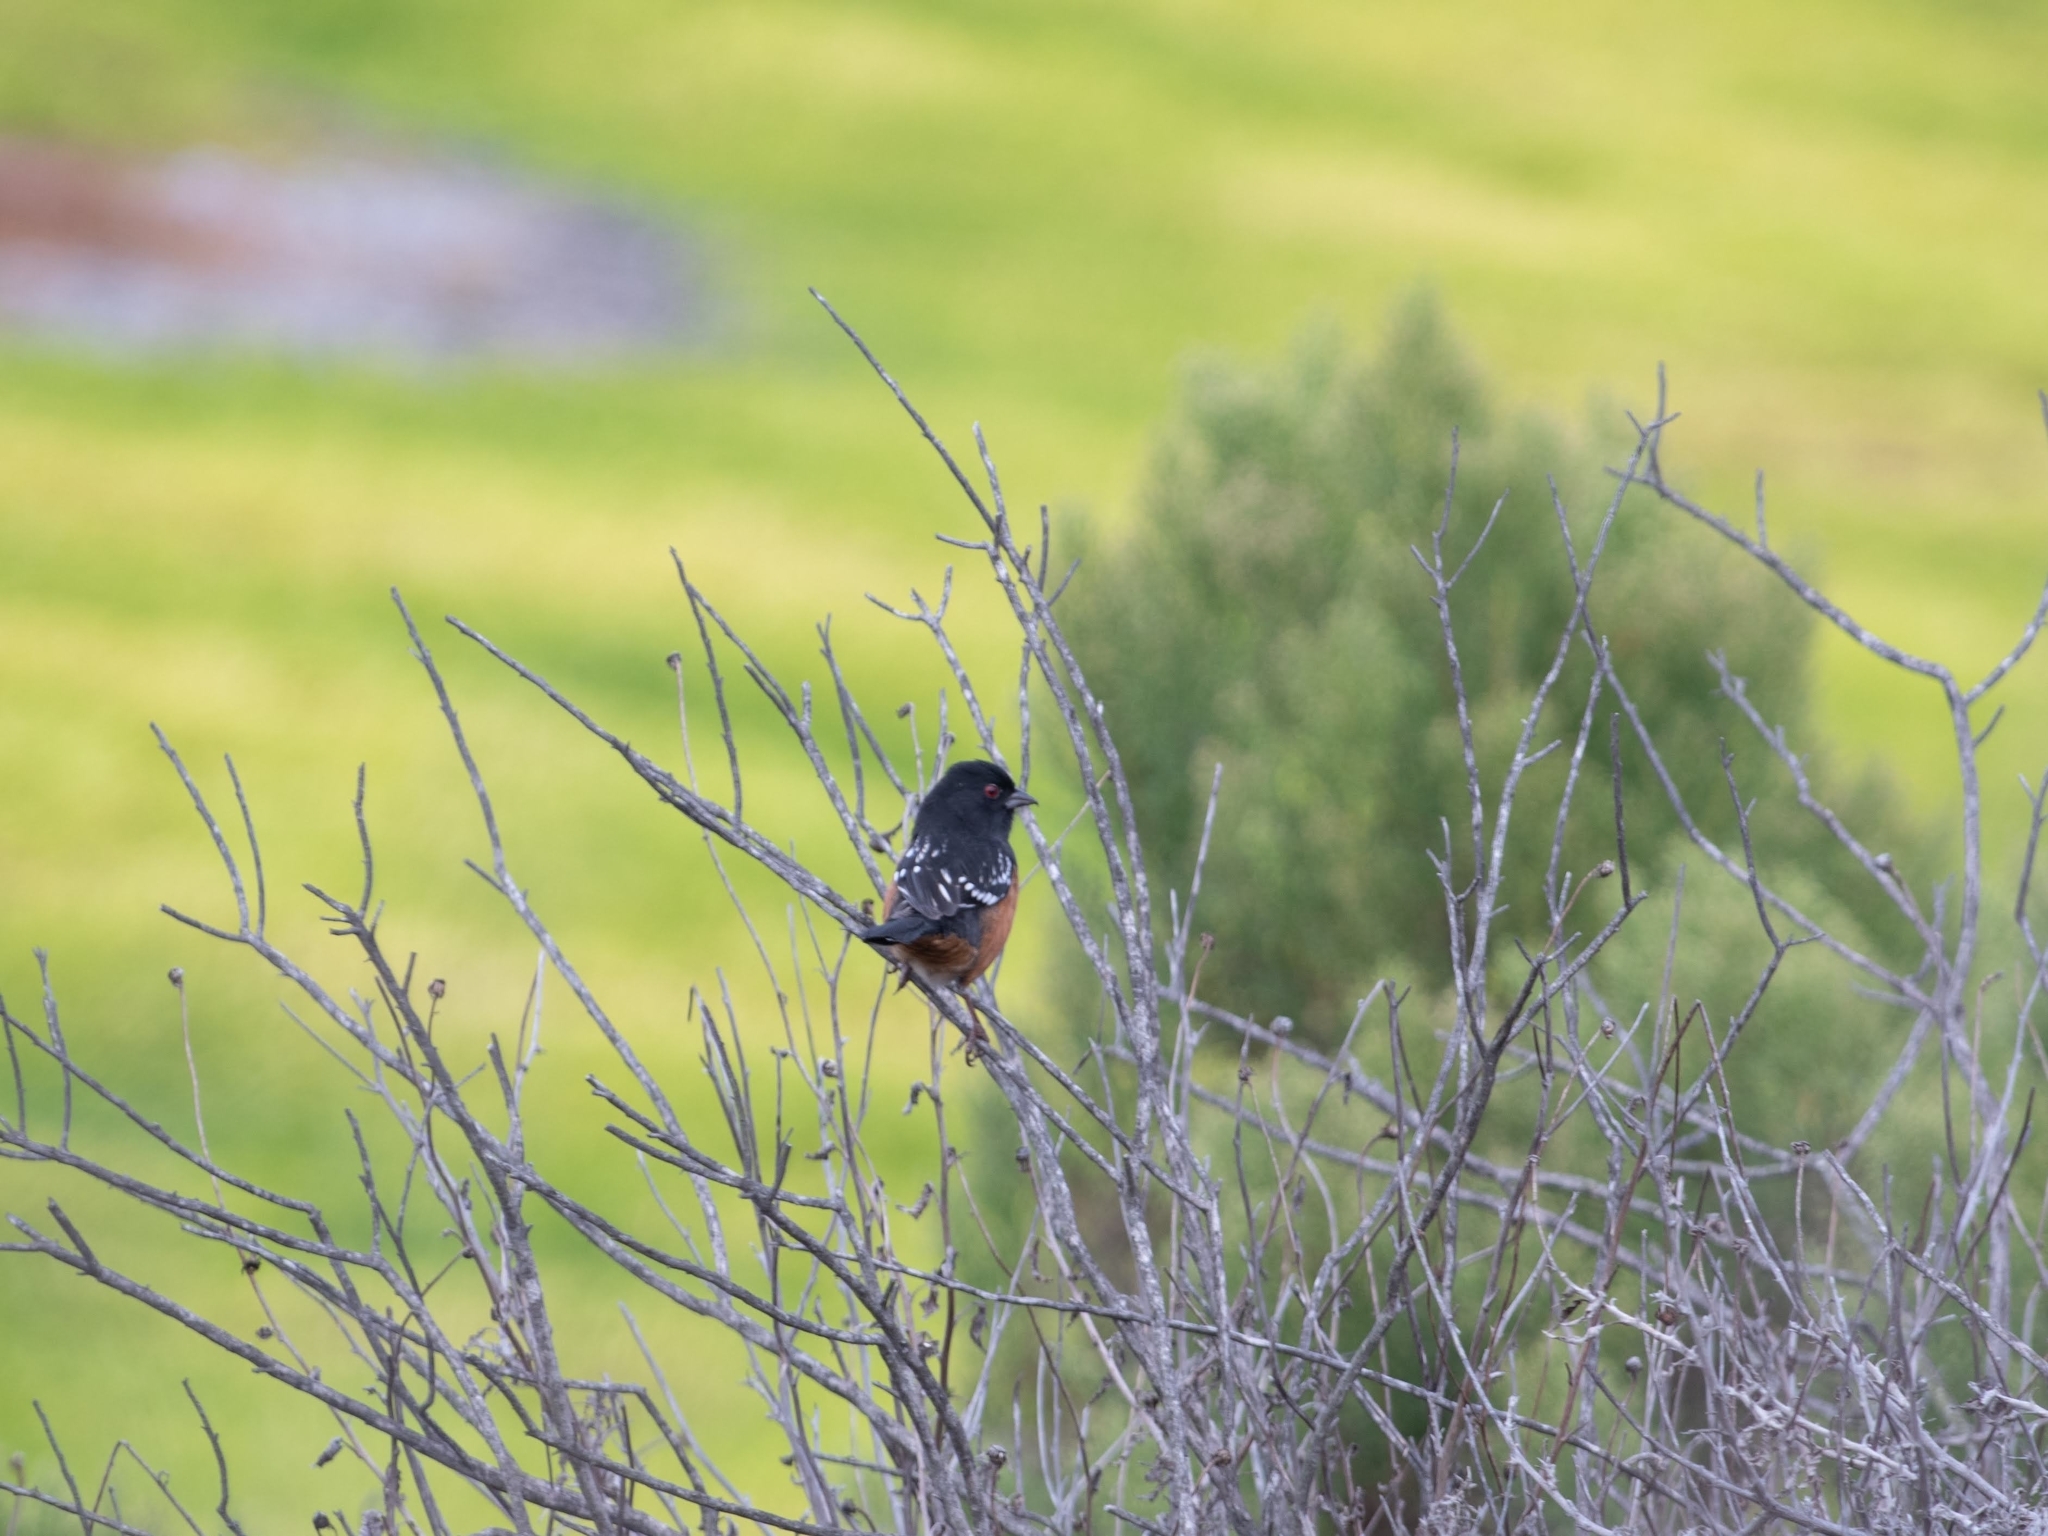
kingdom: Animalia
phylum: Chordata
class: Aves
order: Passeriformes
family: Passerellidae
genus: Pipilo
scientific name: Pipilo maculatus
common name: Spotted towhee
